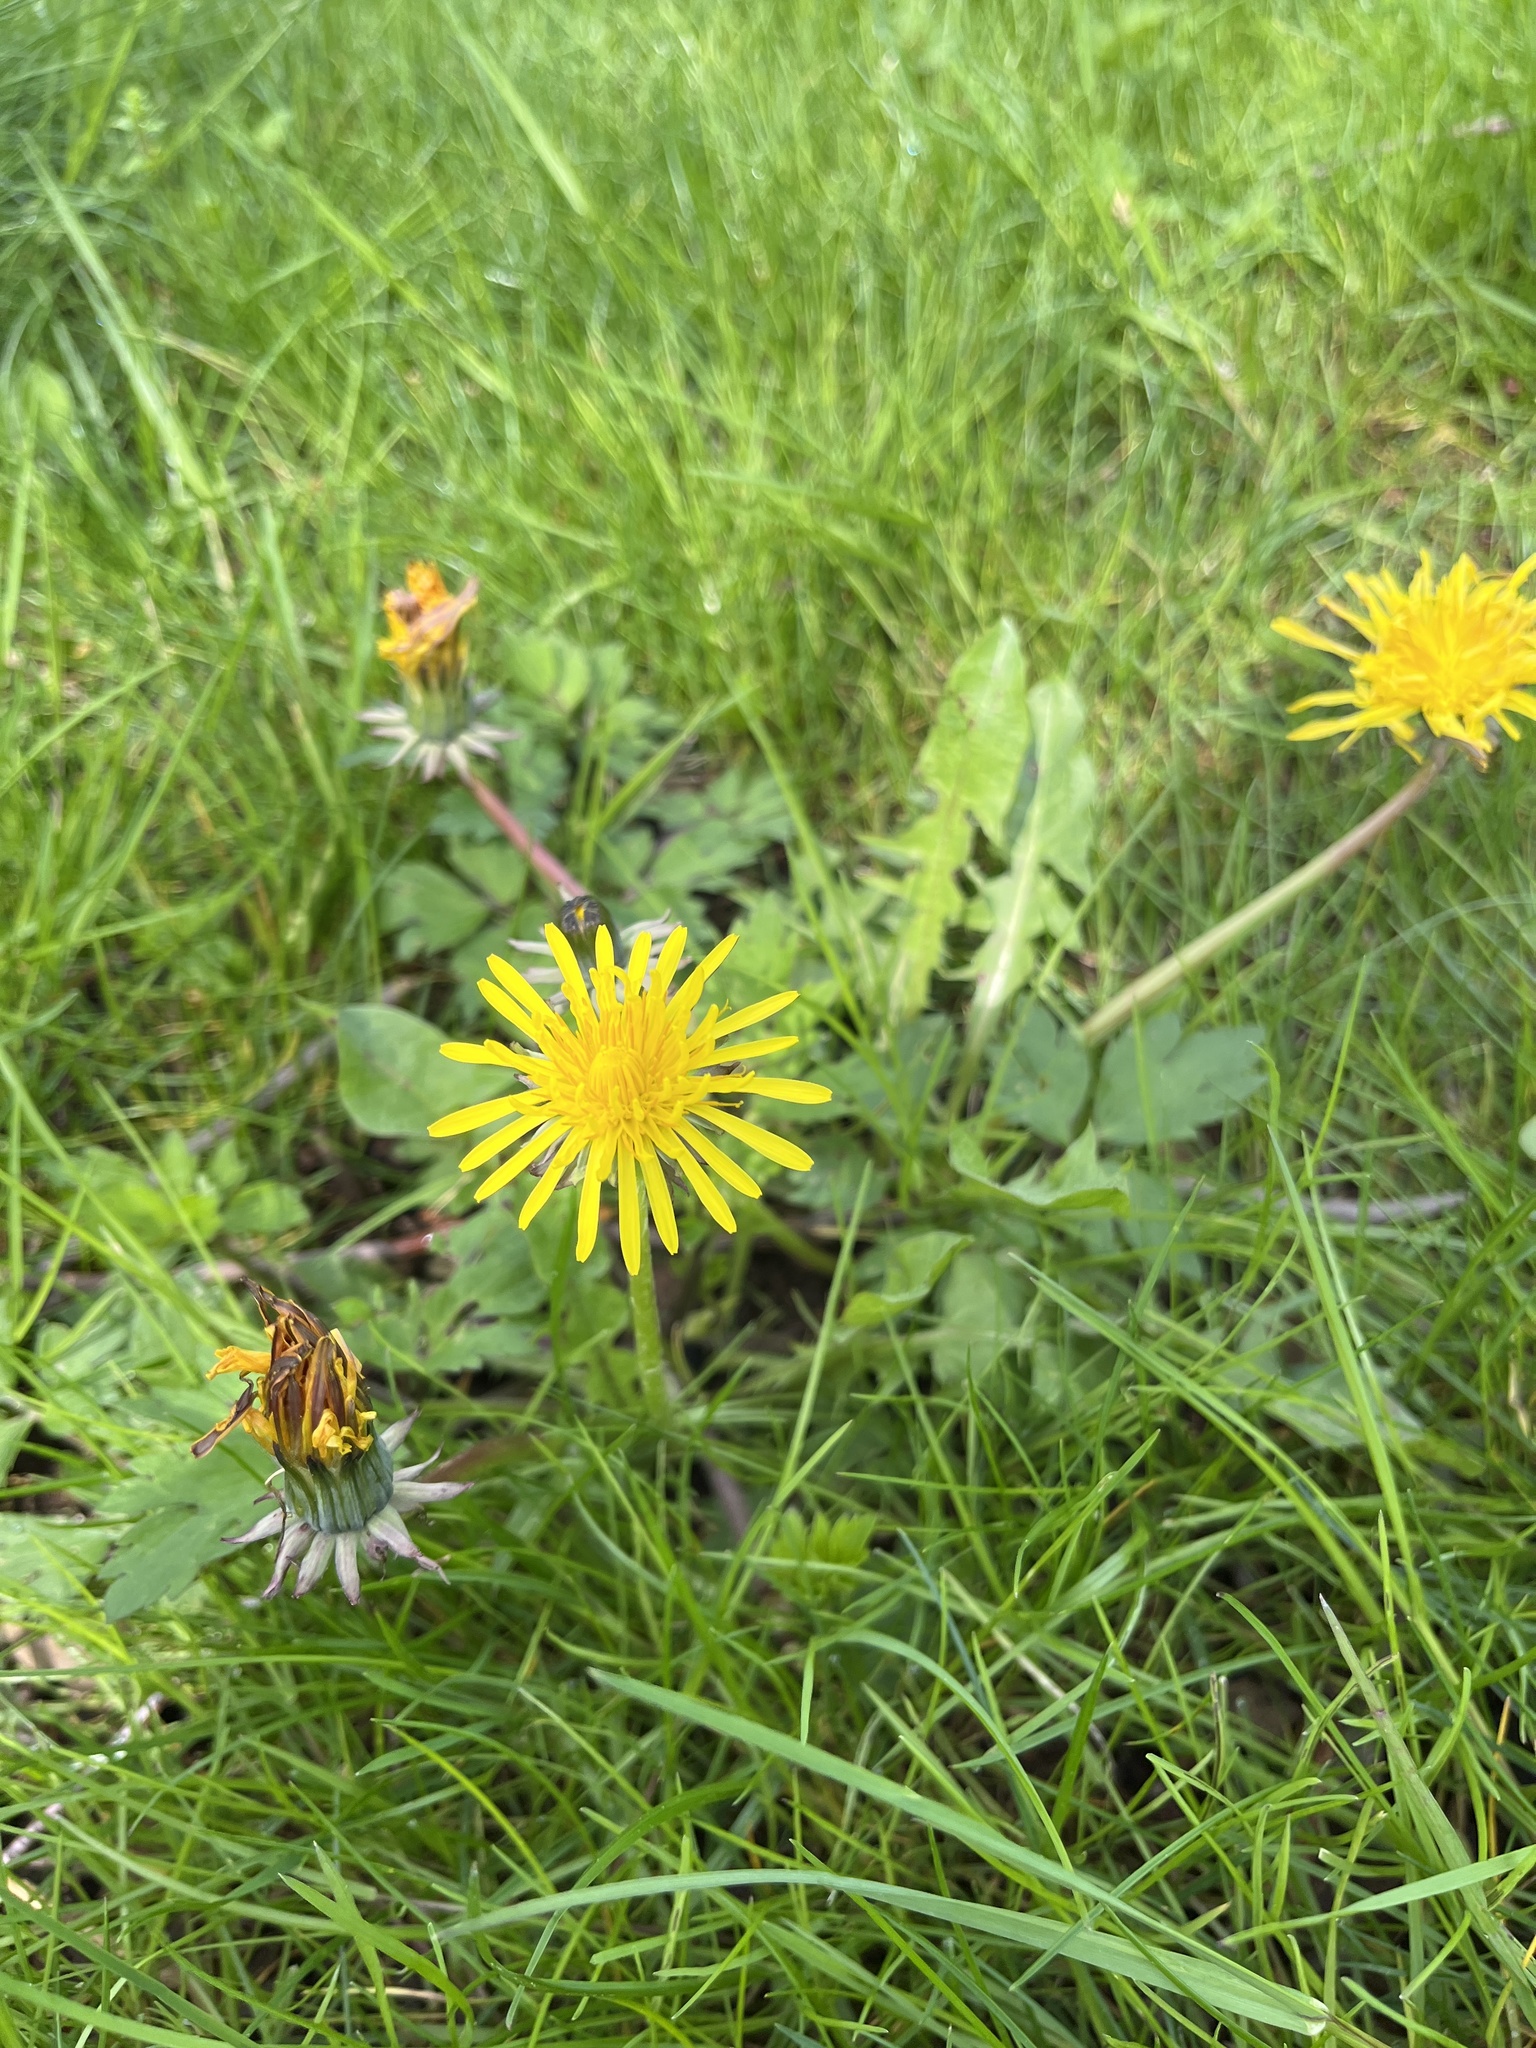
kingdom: Plantae
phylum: Tracheophyta
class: Magnoliopsida
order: Asterales
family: Asteraceae
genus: Taraxacum
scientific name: Taraxacum officinale
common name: Common dandelion
